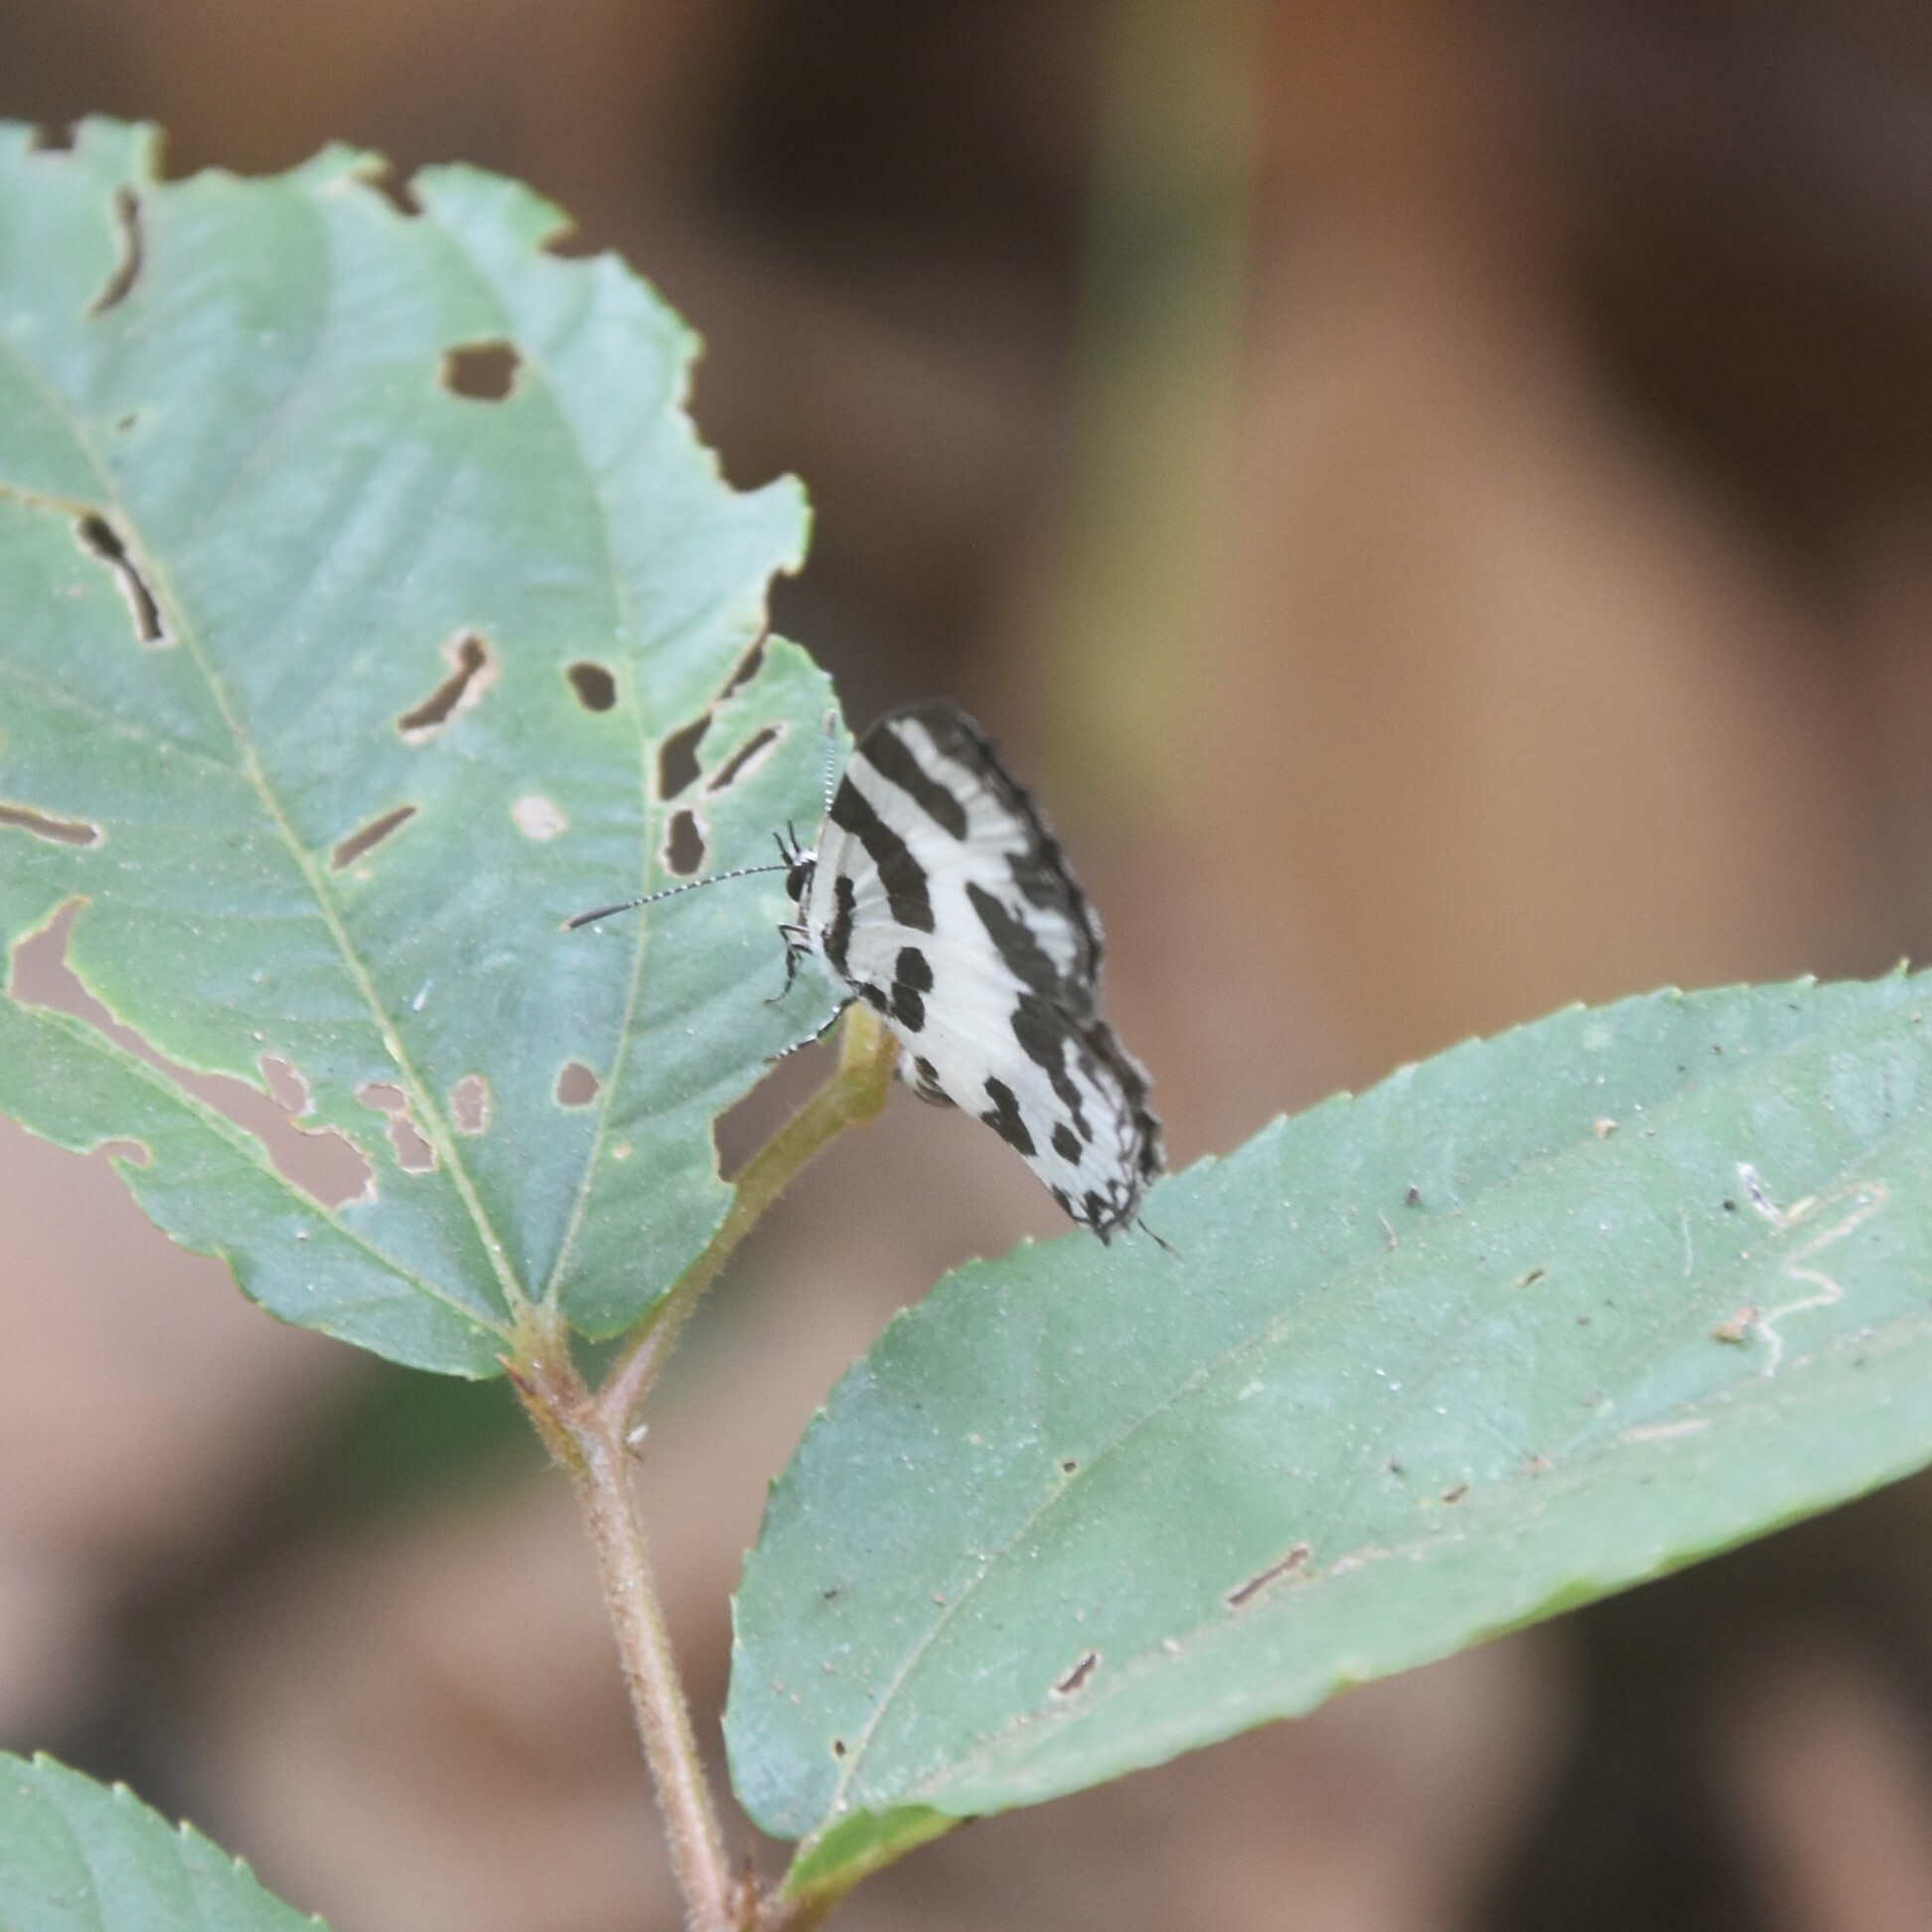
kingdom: Animalia
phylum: Arthropoda
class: Insecta
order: Lepidoptera
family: Lycaenidae
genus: Caleta
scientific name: Caleta decidia
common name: Angled pierrot
